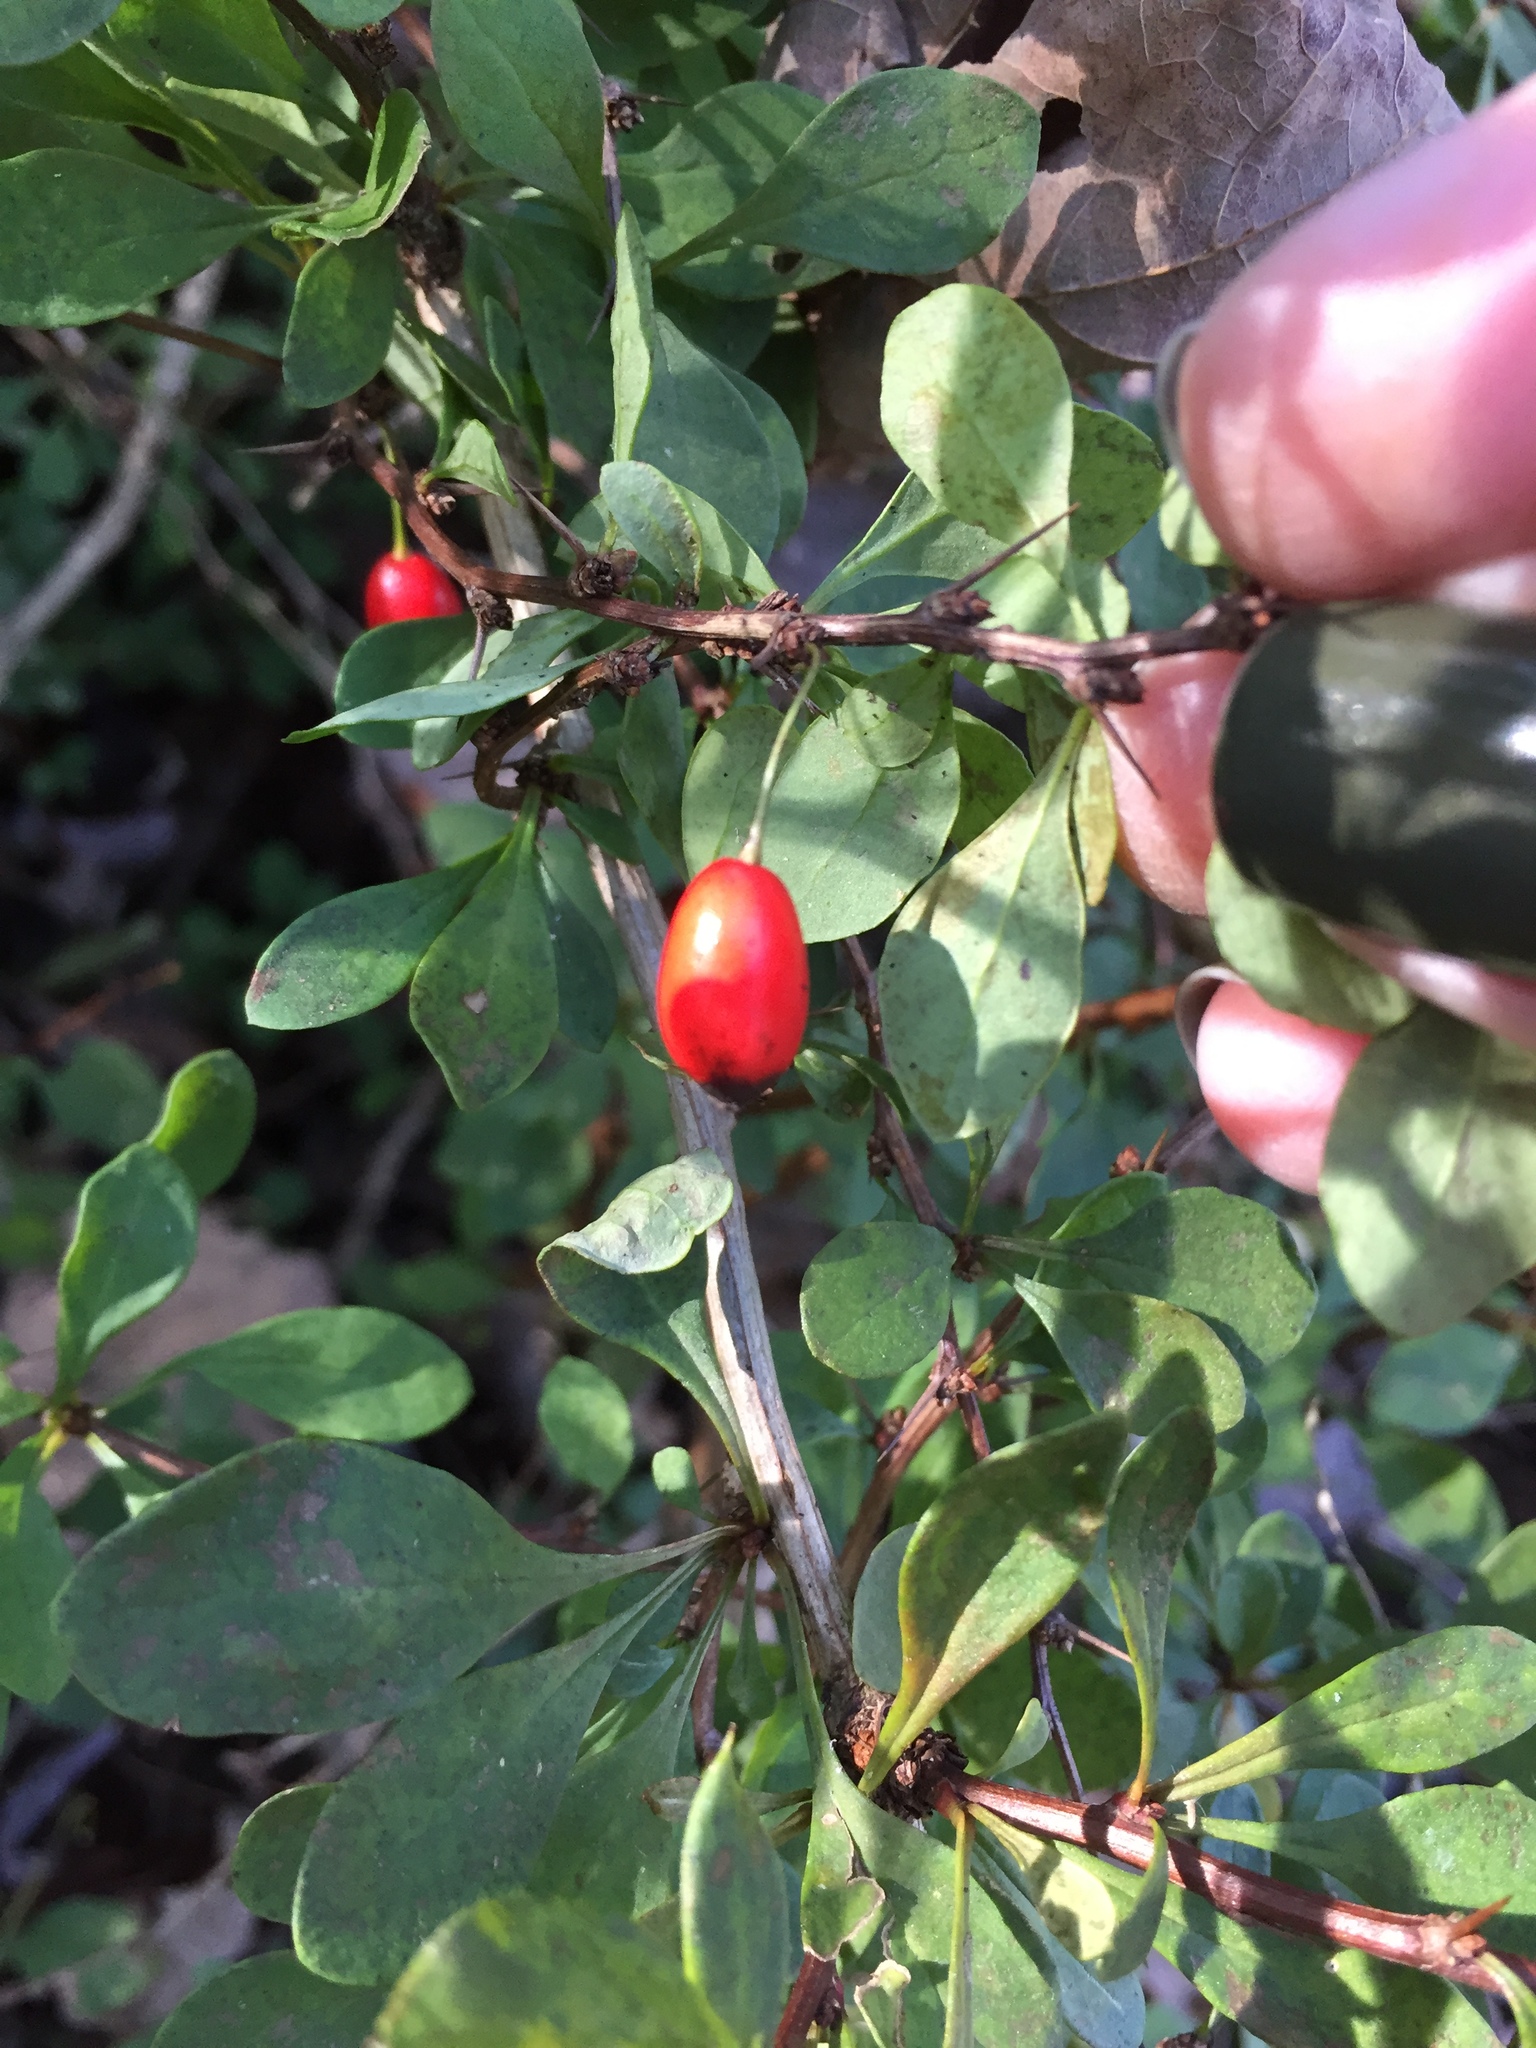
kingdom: Plantae
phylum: Tracheophyta
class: Magnoliopsida
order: Ranunculales
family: Berberidaceae
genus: Berberis
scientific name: Berberis thunbergii
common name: Japanese barberry
